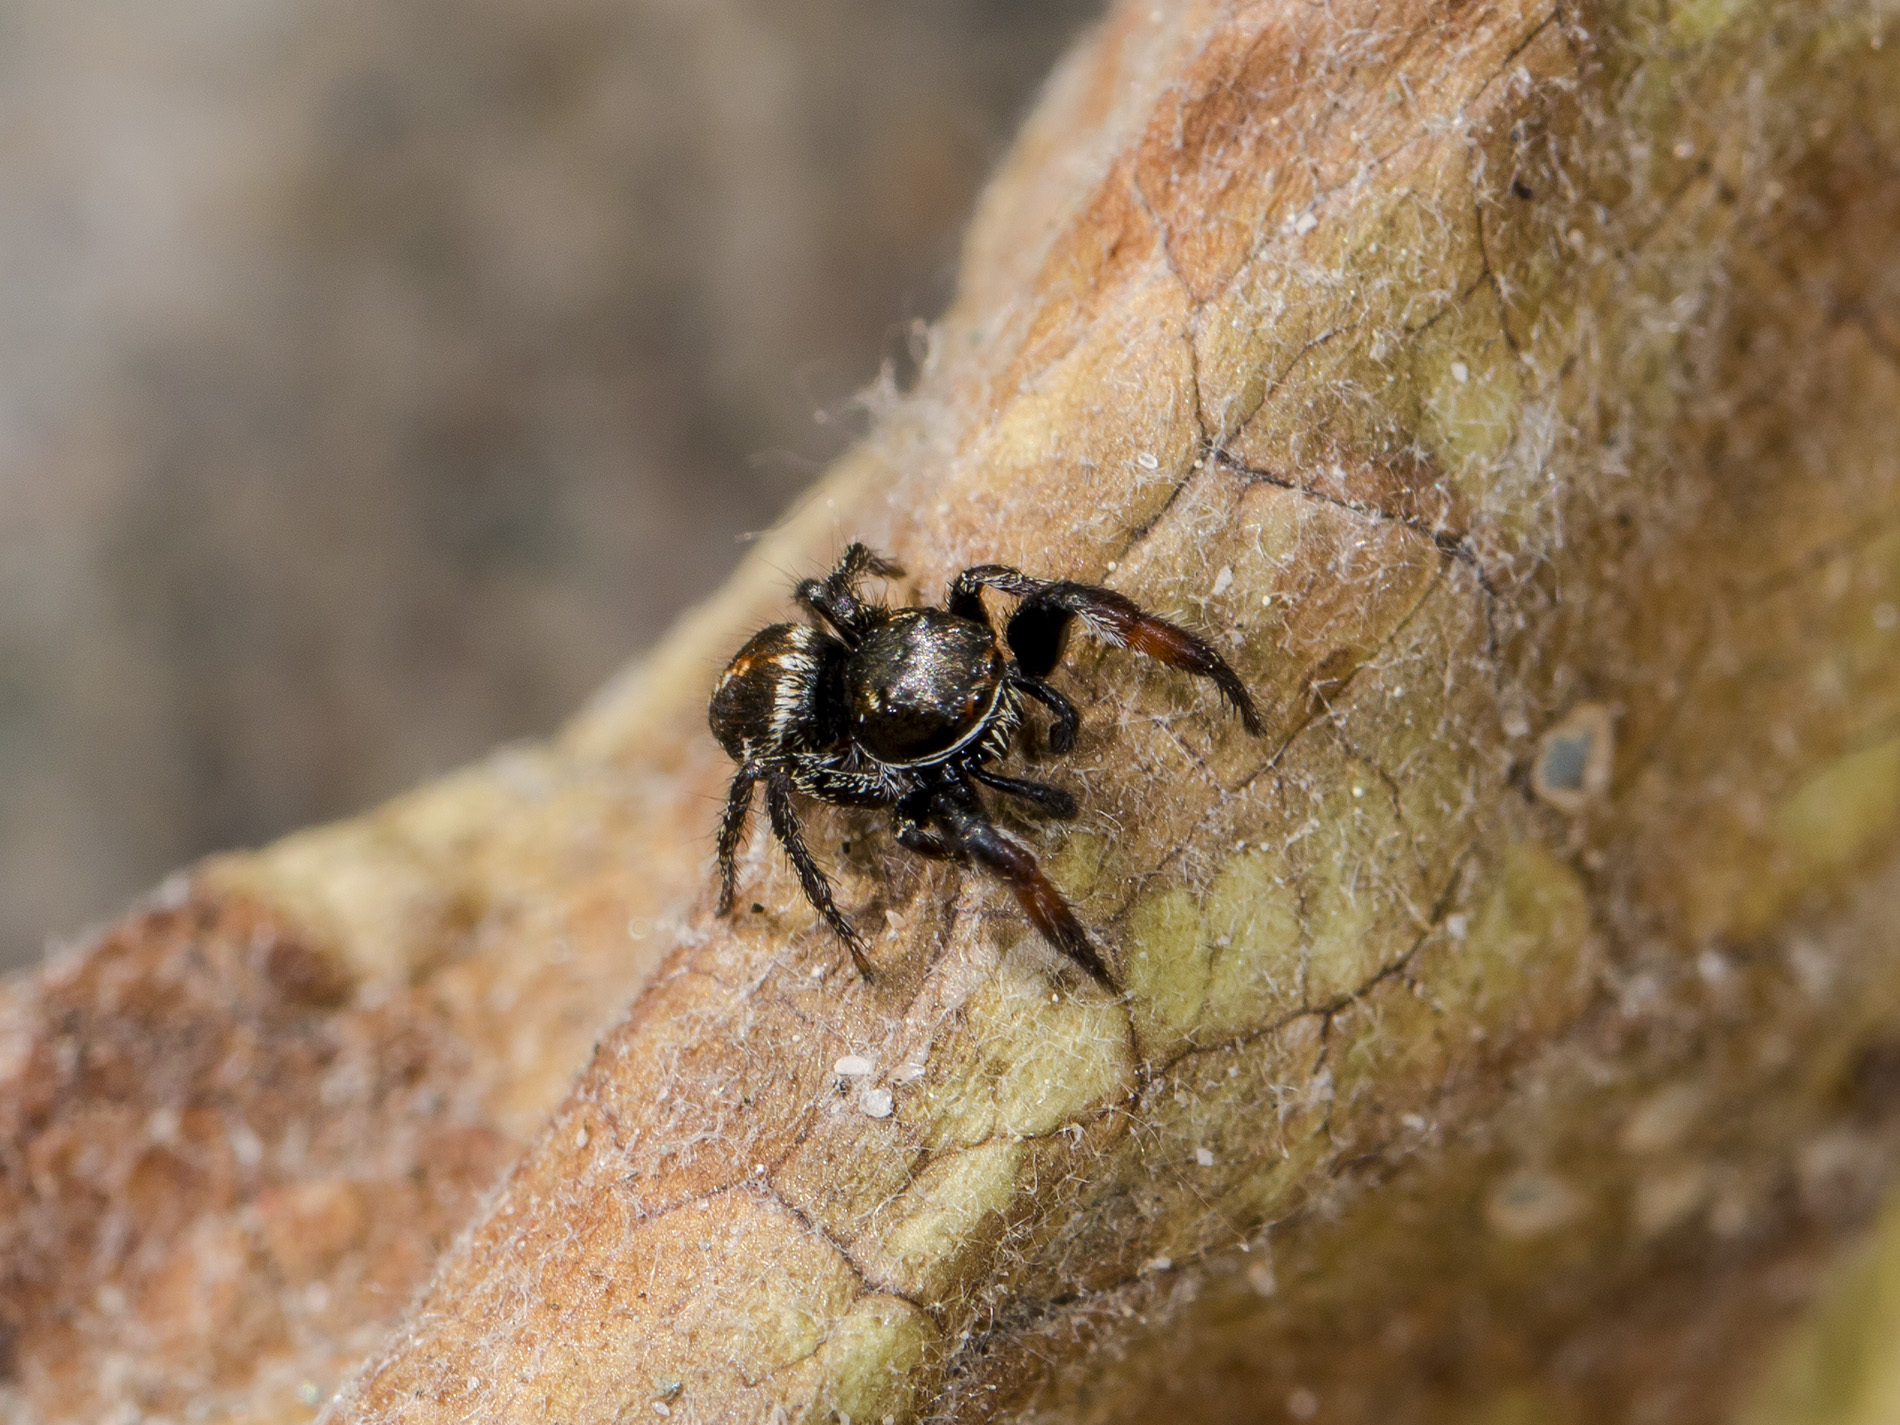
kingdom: Animalia
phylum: Arthropoda
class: Arachnida
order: Araneae
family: Salticidae
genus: Pellenes
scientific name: Pellenes allegrii
